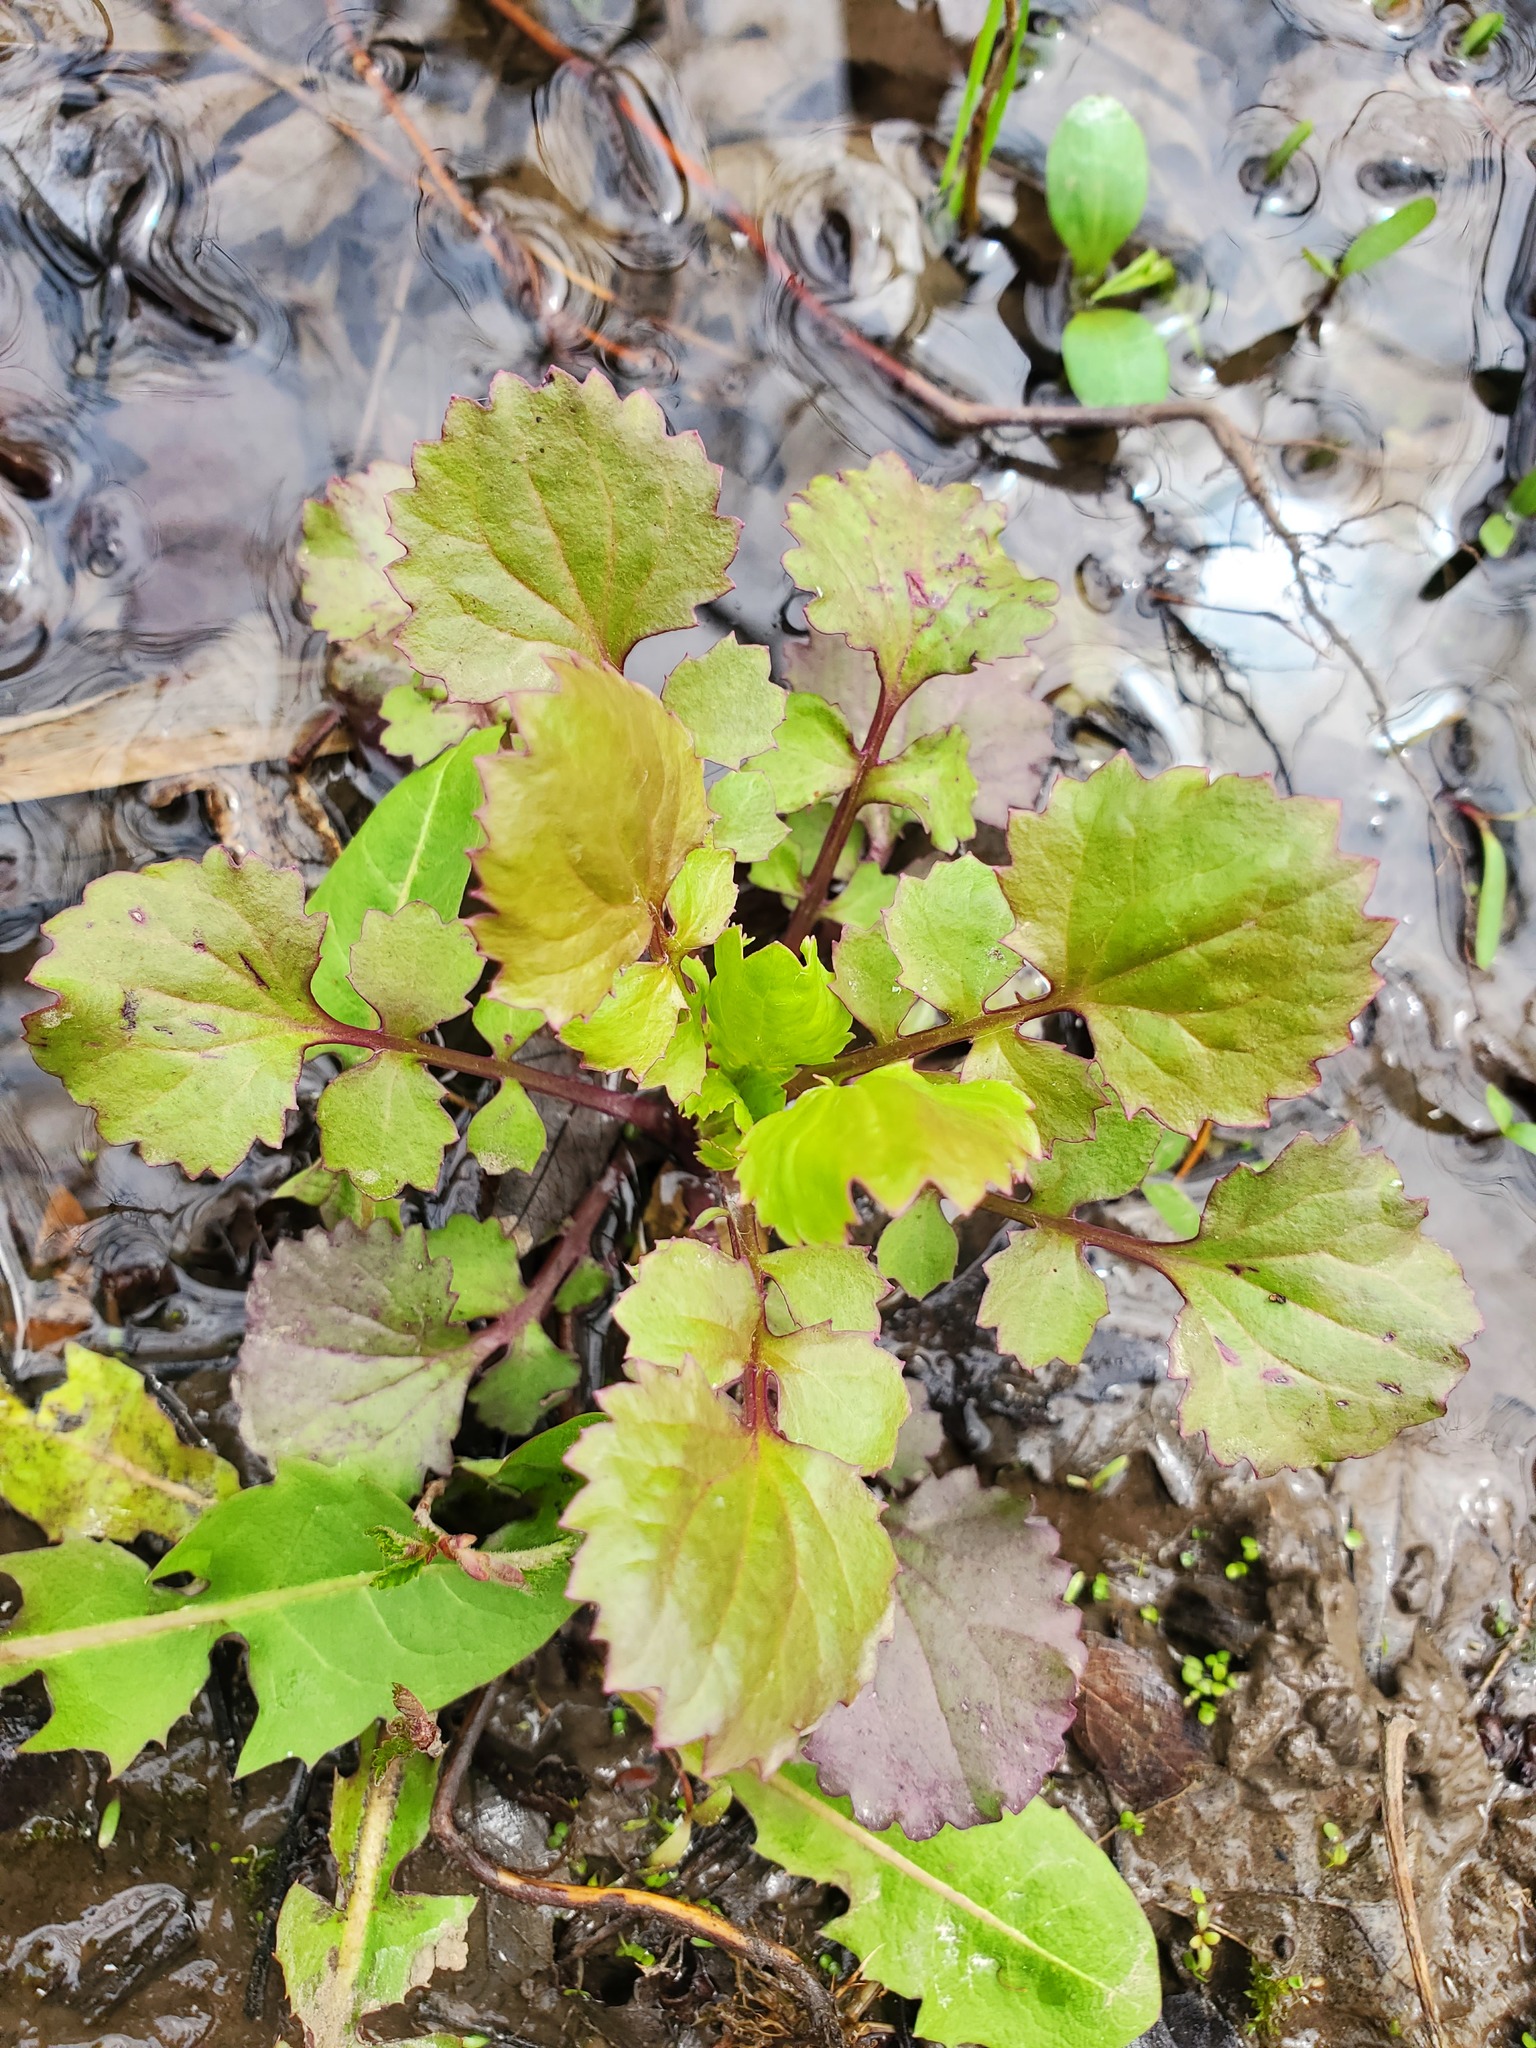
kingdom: Plantae
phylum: Tracheophyta
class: Magnoliopsida
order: Asterales
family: Asteraceae
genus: Packera
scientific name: Packera glabella
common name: Butterweed
